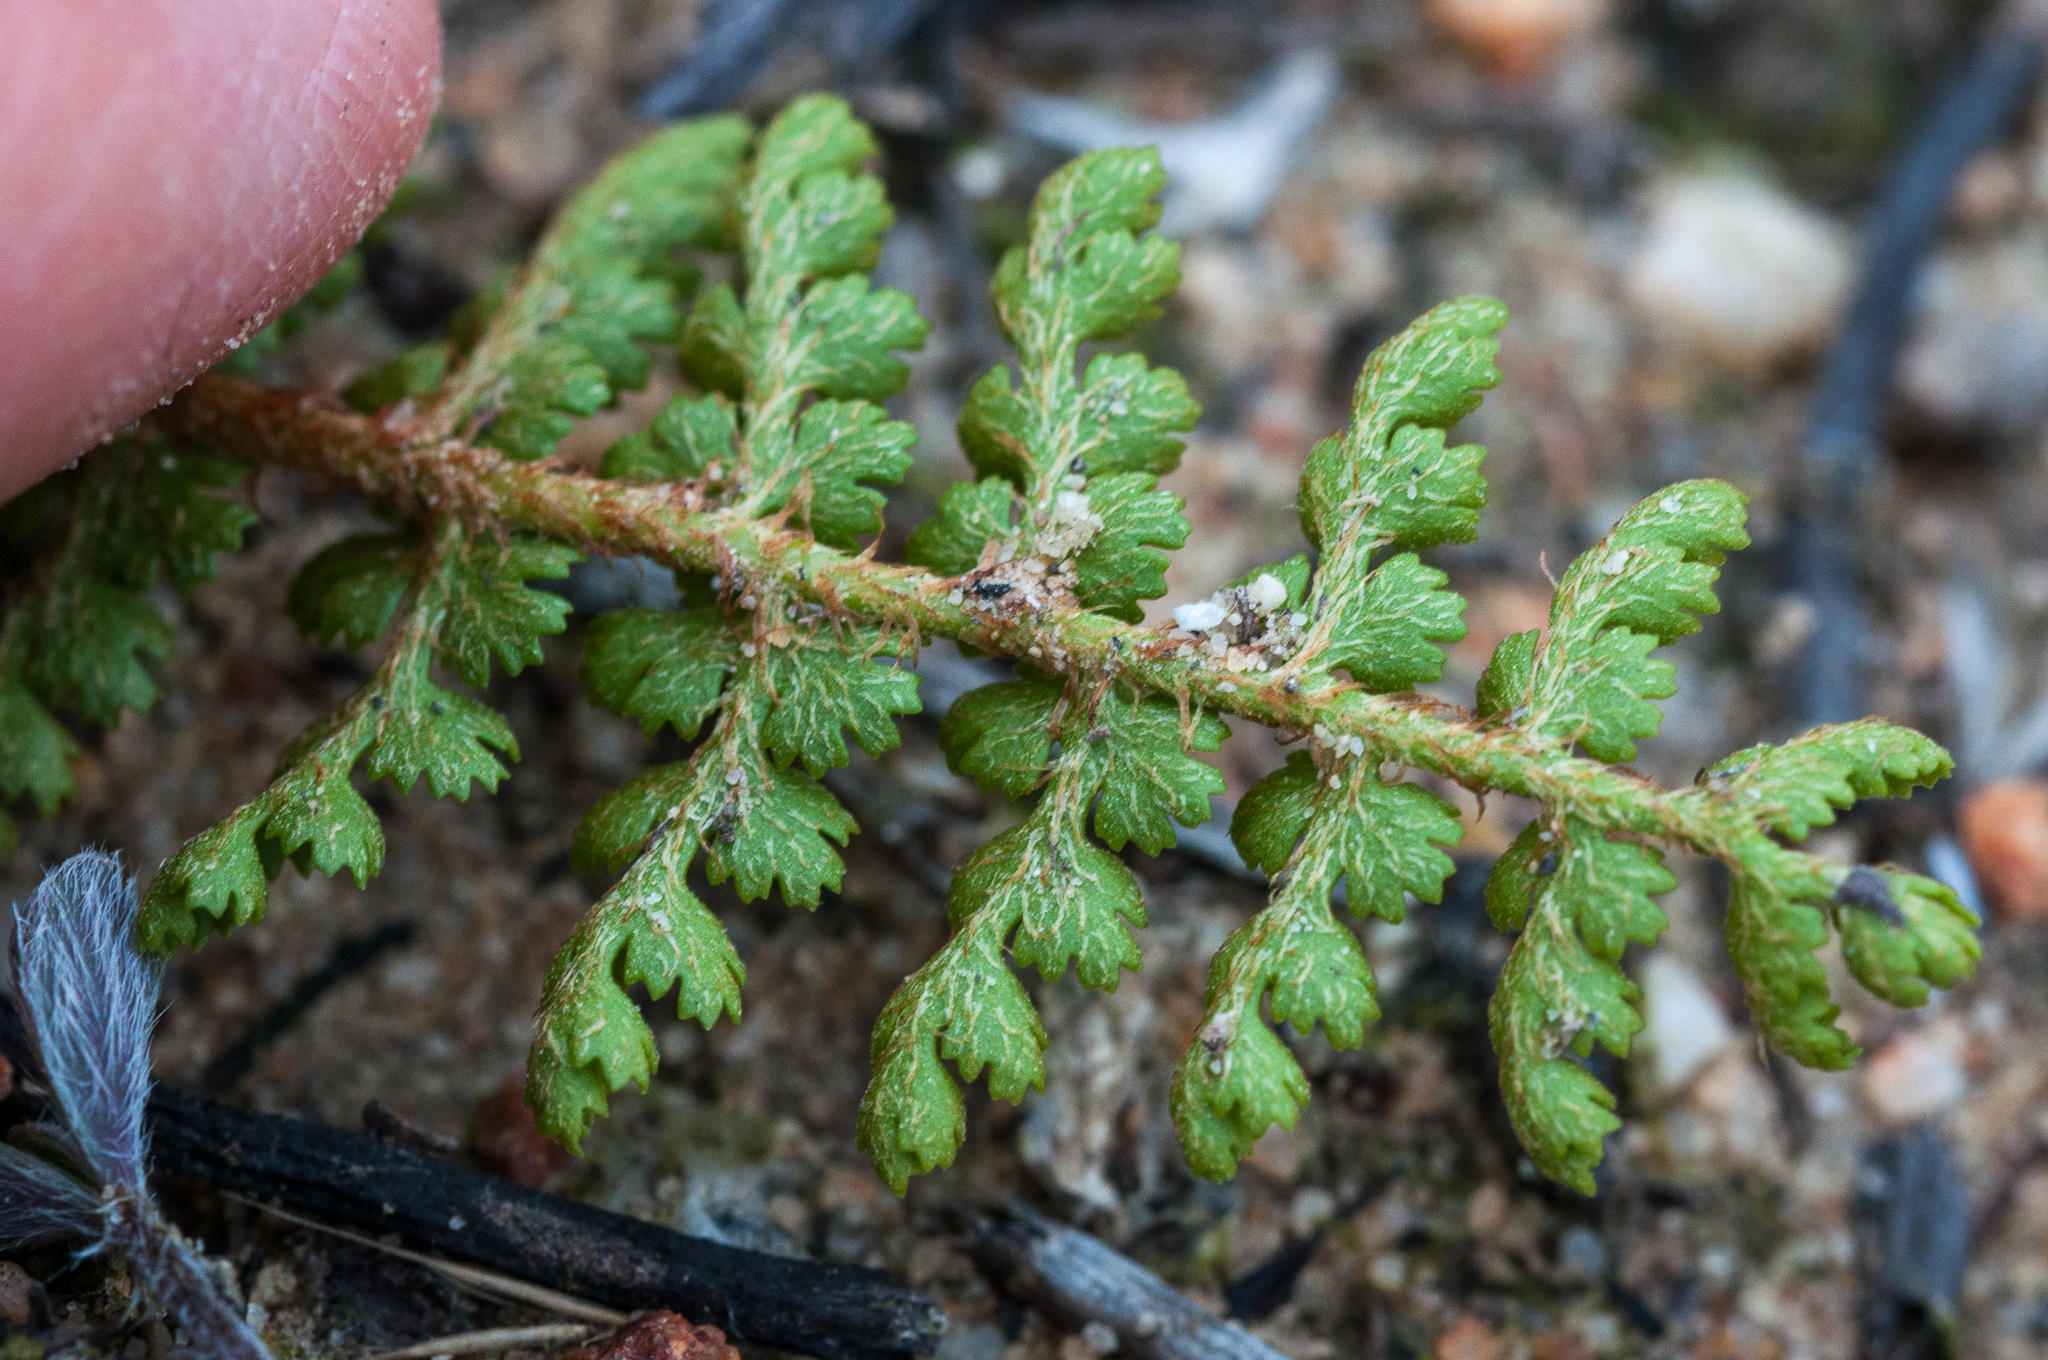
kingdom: Plantae
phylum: Tracheophyta
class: Polypodiopsida
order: Schizaeales
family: Anemiaceae
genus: Anemia
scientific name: Anemia caffrorum
